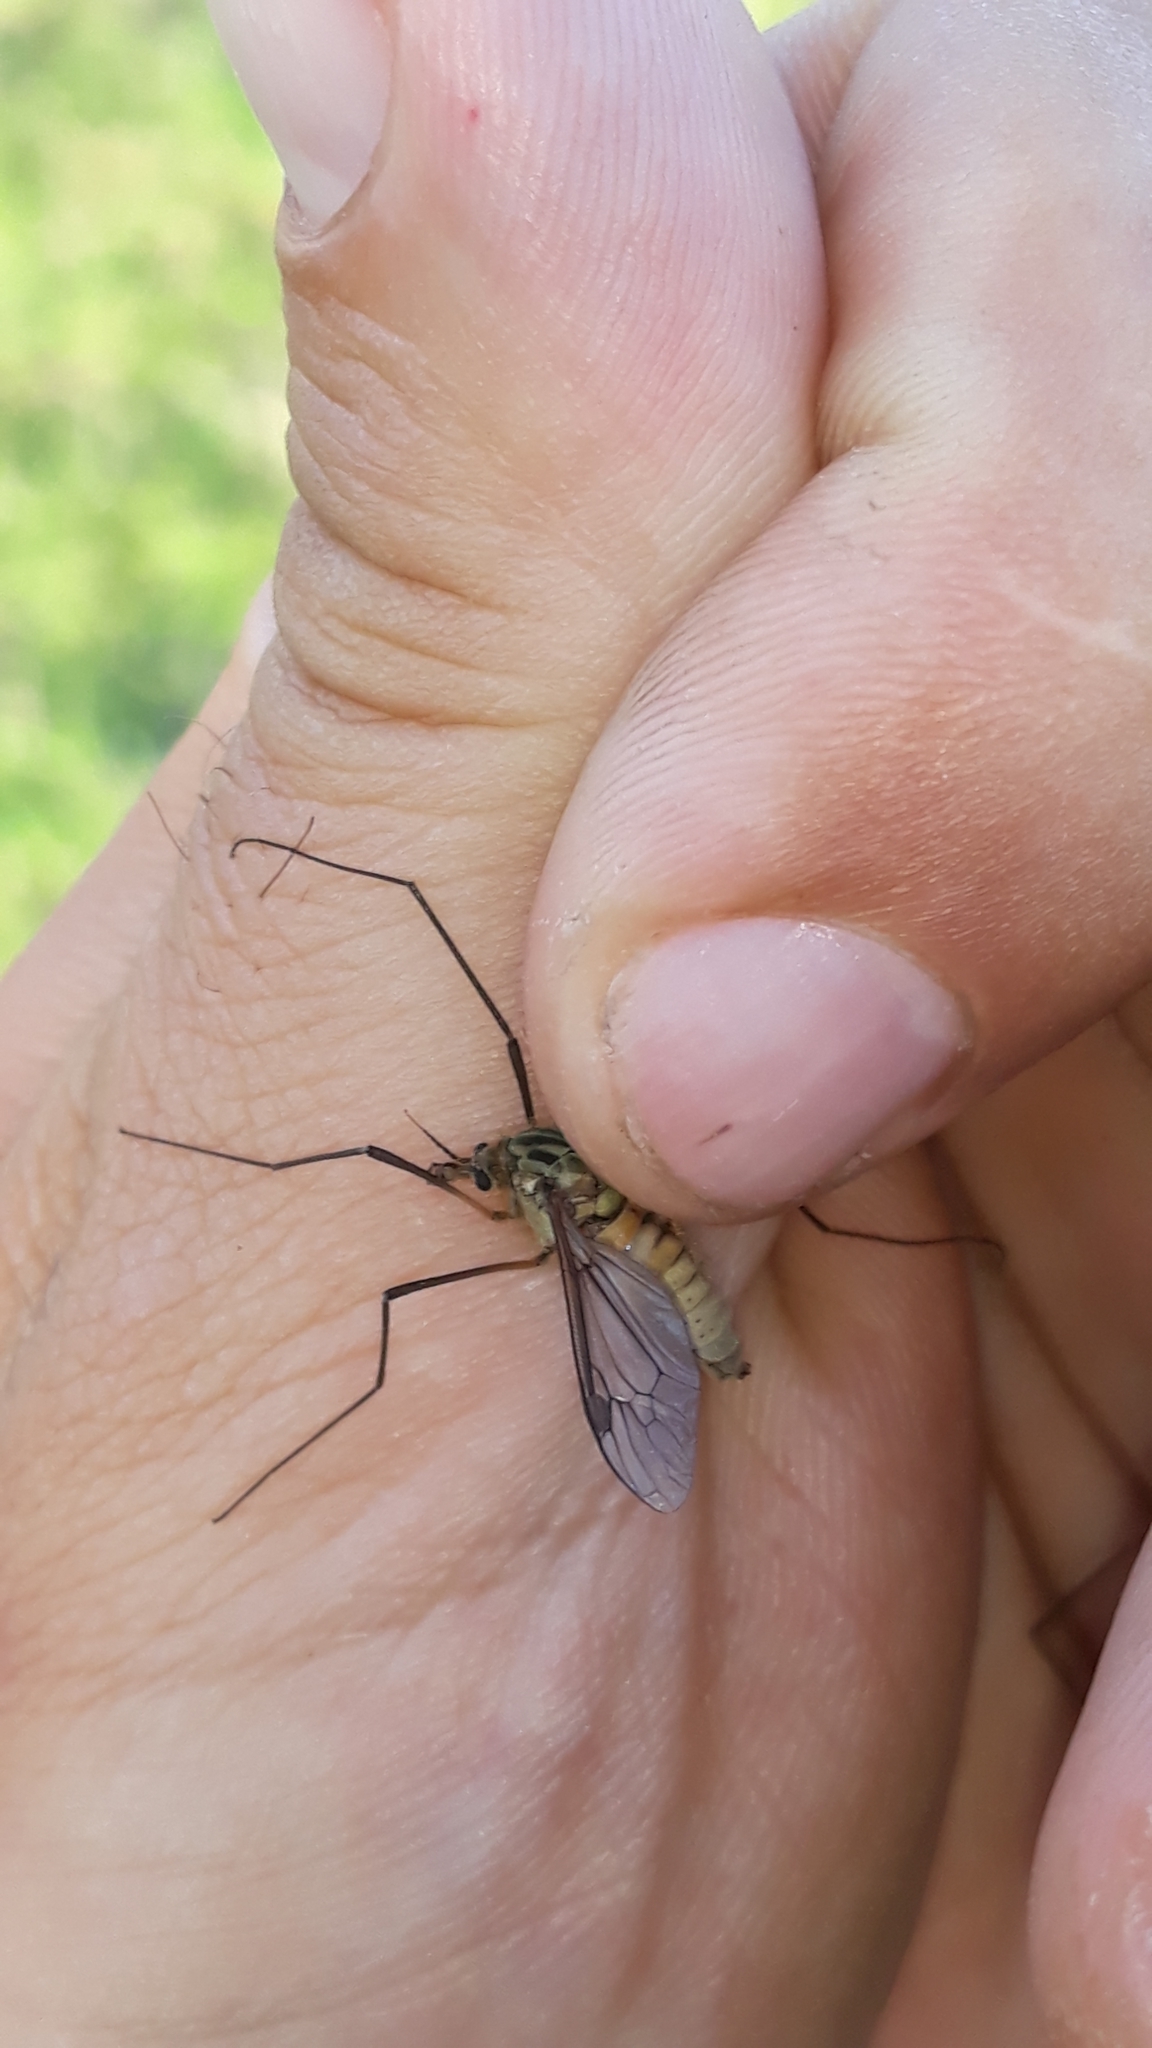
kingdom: Animalia
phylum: Arthropoda
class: Insecta
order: Diptera
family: Tipulidae
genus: Leptotarsus
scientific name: Leptotarsus vulpinus
